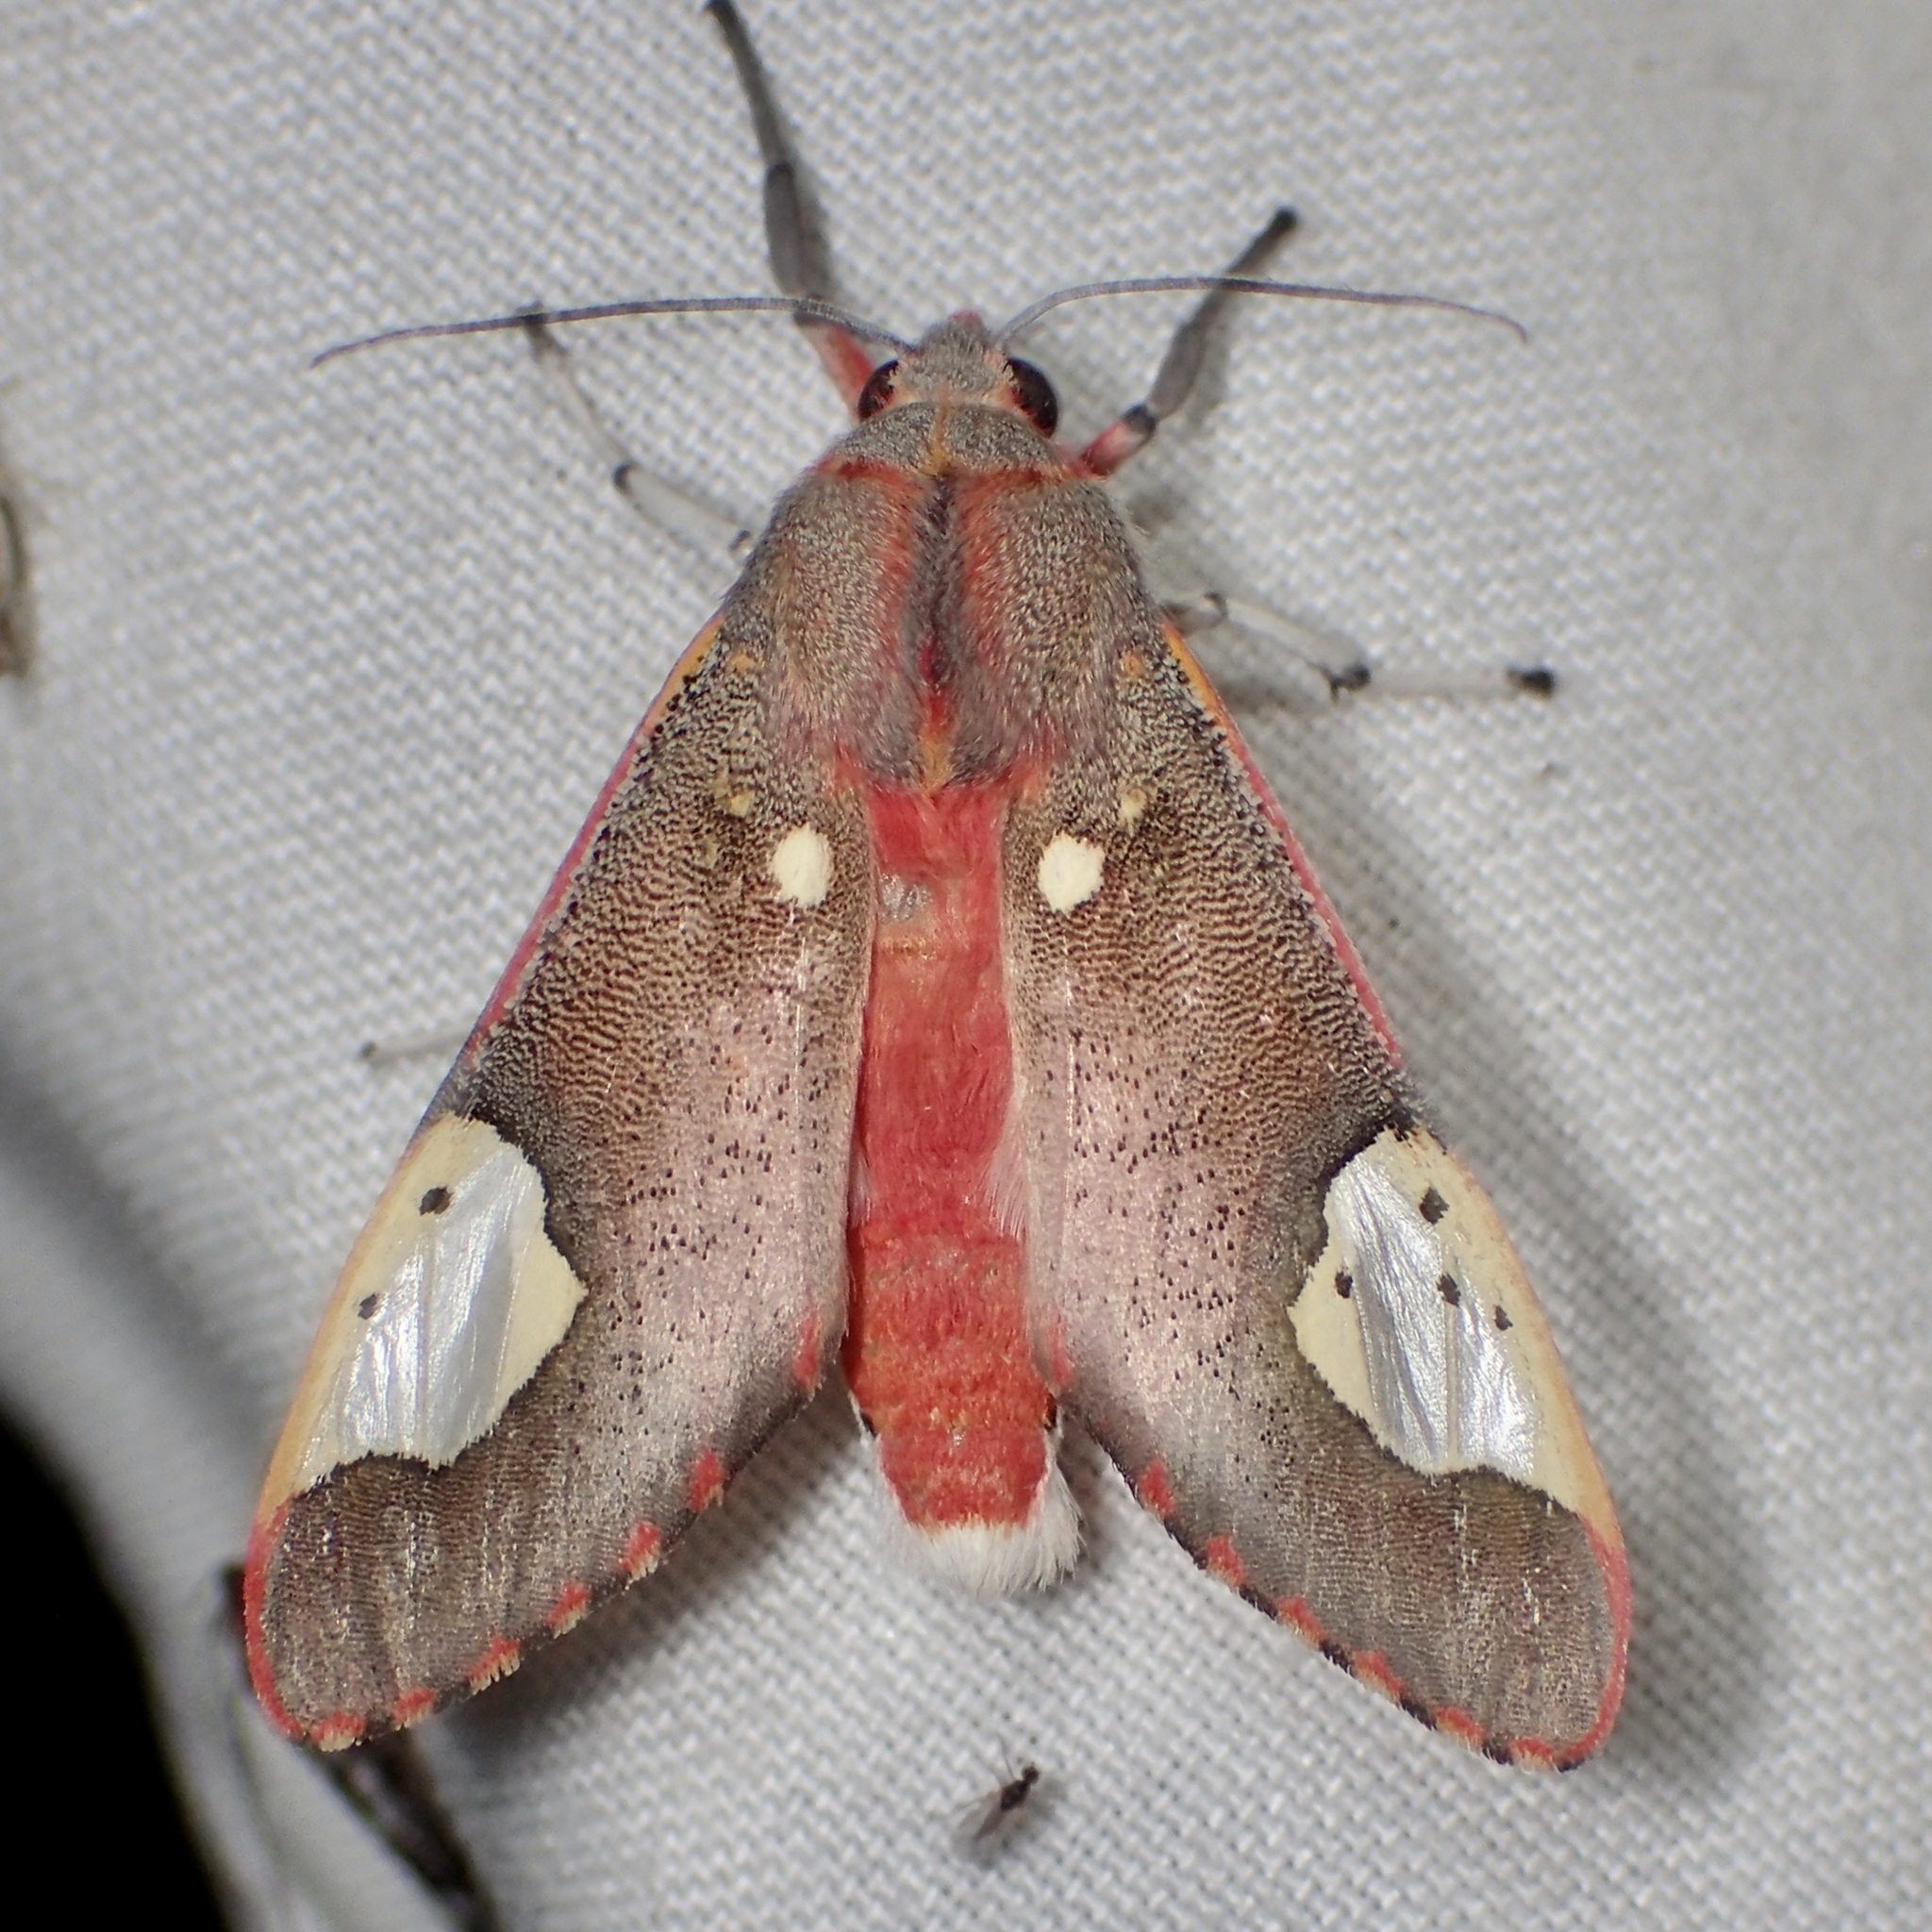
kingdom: Animalia
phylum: Arthropoda
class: Insecta
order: Lepidoptera
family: Erebidae
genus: Bertholdia
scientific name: Bertholdia trigona
